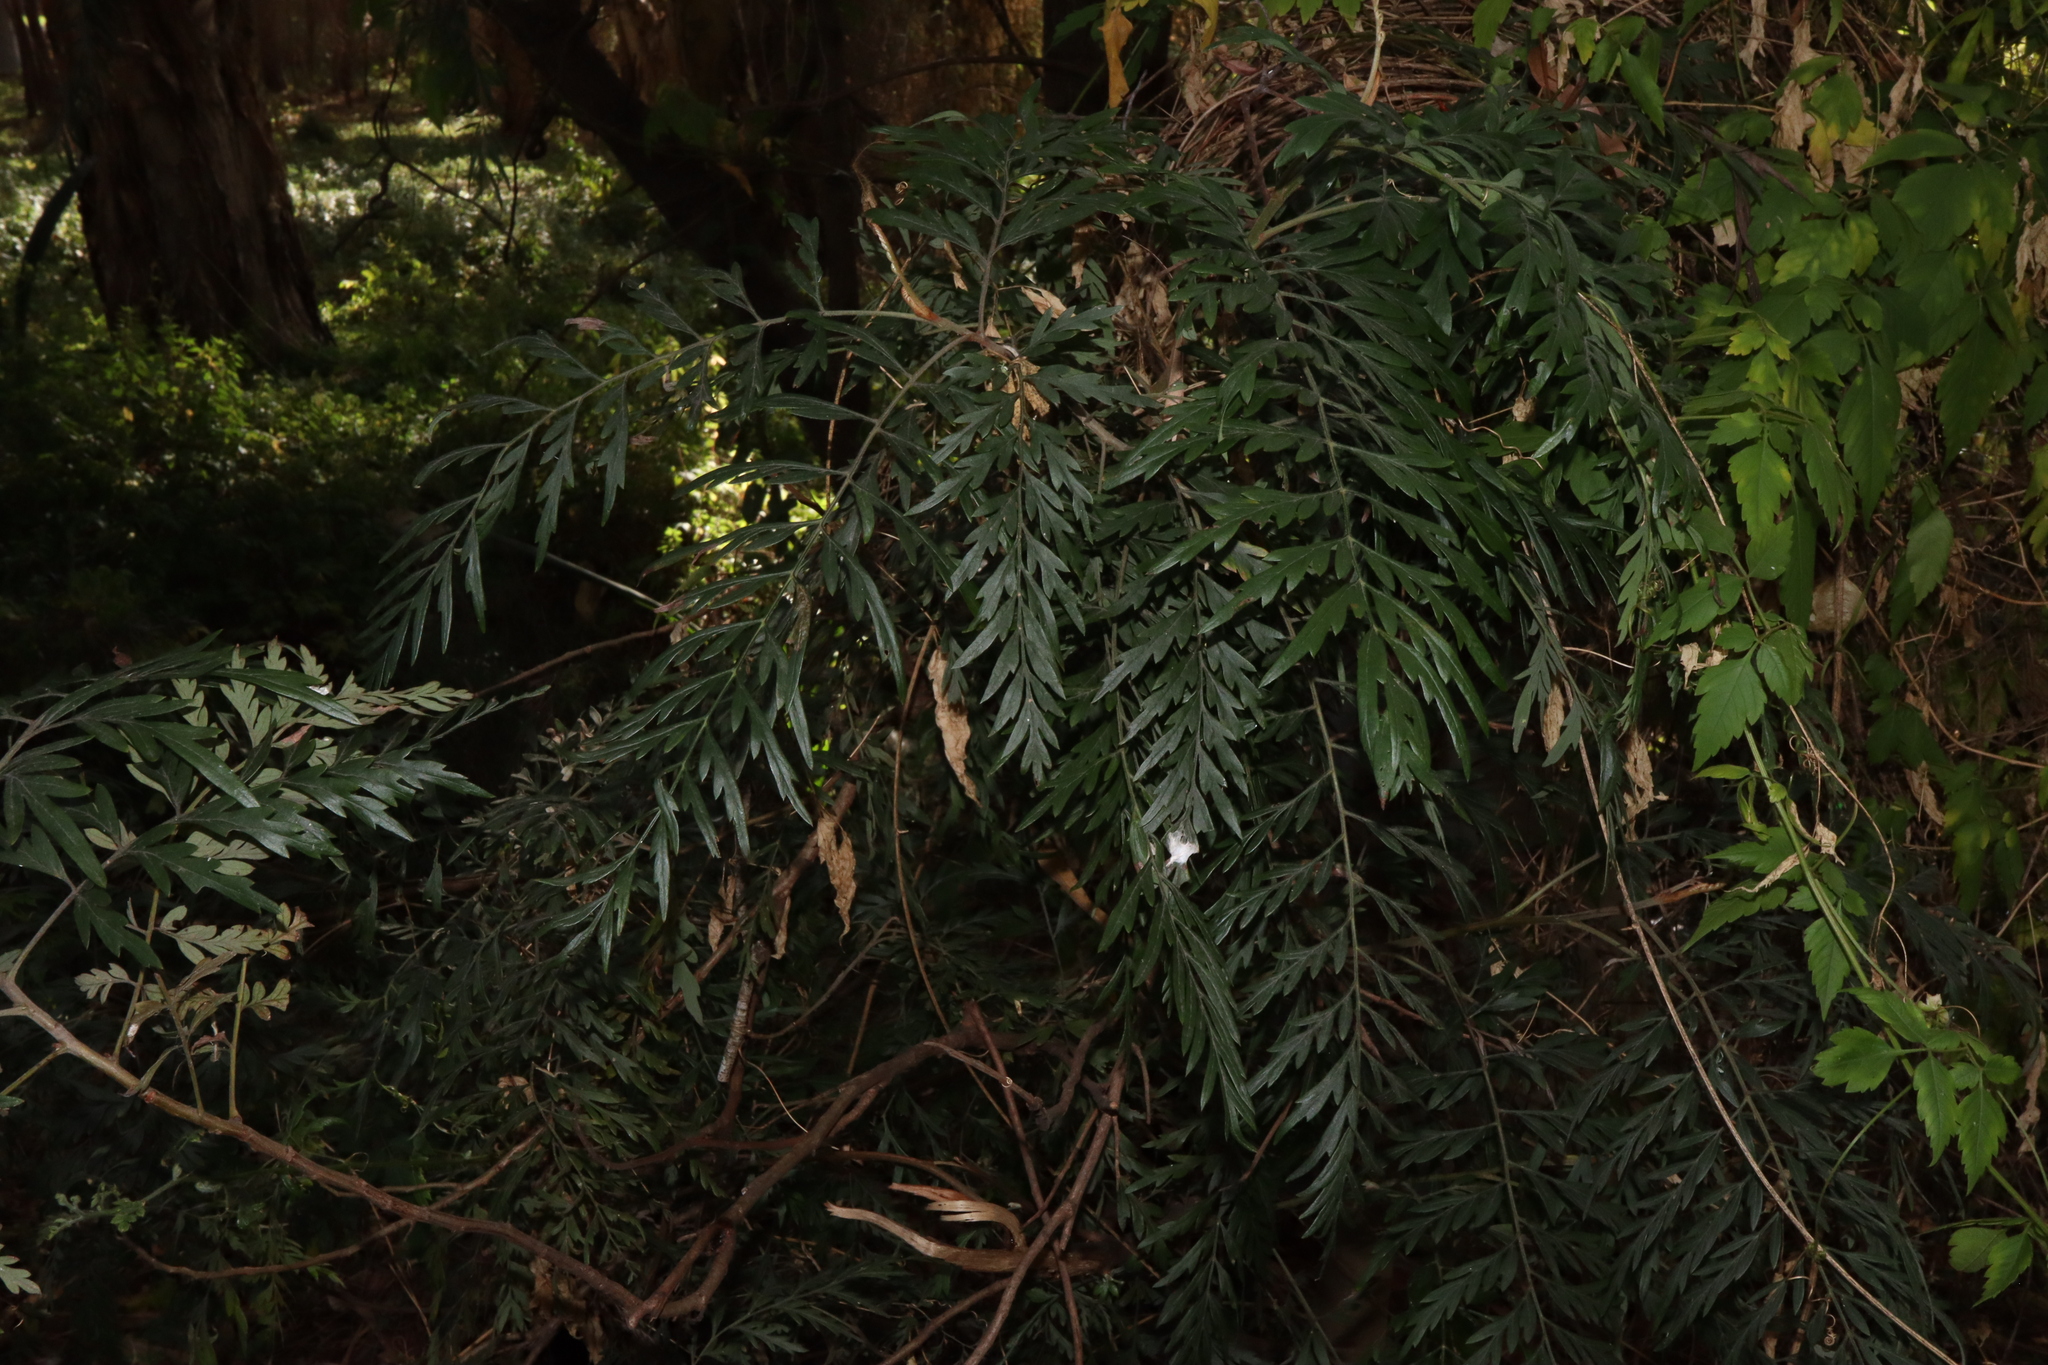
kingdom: Plantae
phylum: Tracheophyta
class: Magnoliopsida
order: Proteales
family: Proteaceae
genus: Grevillea
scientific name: Grevillea robusta
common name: Silkoak
